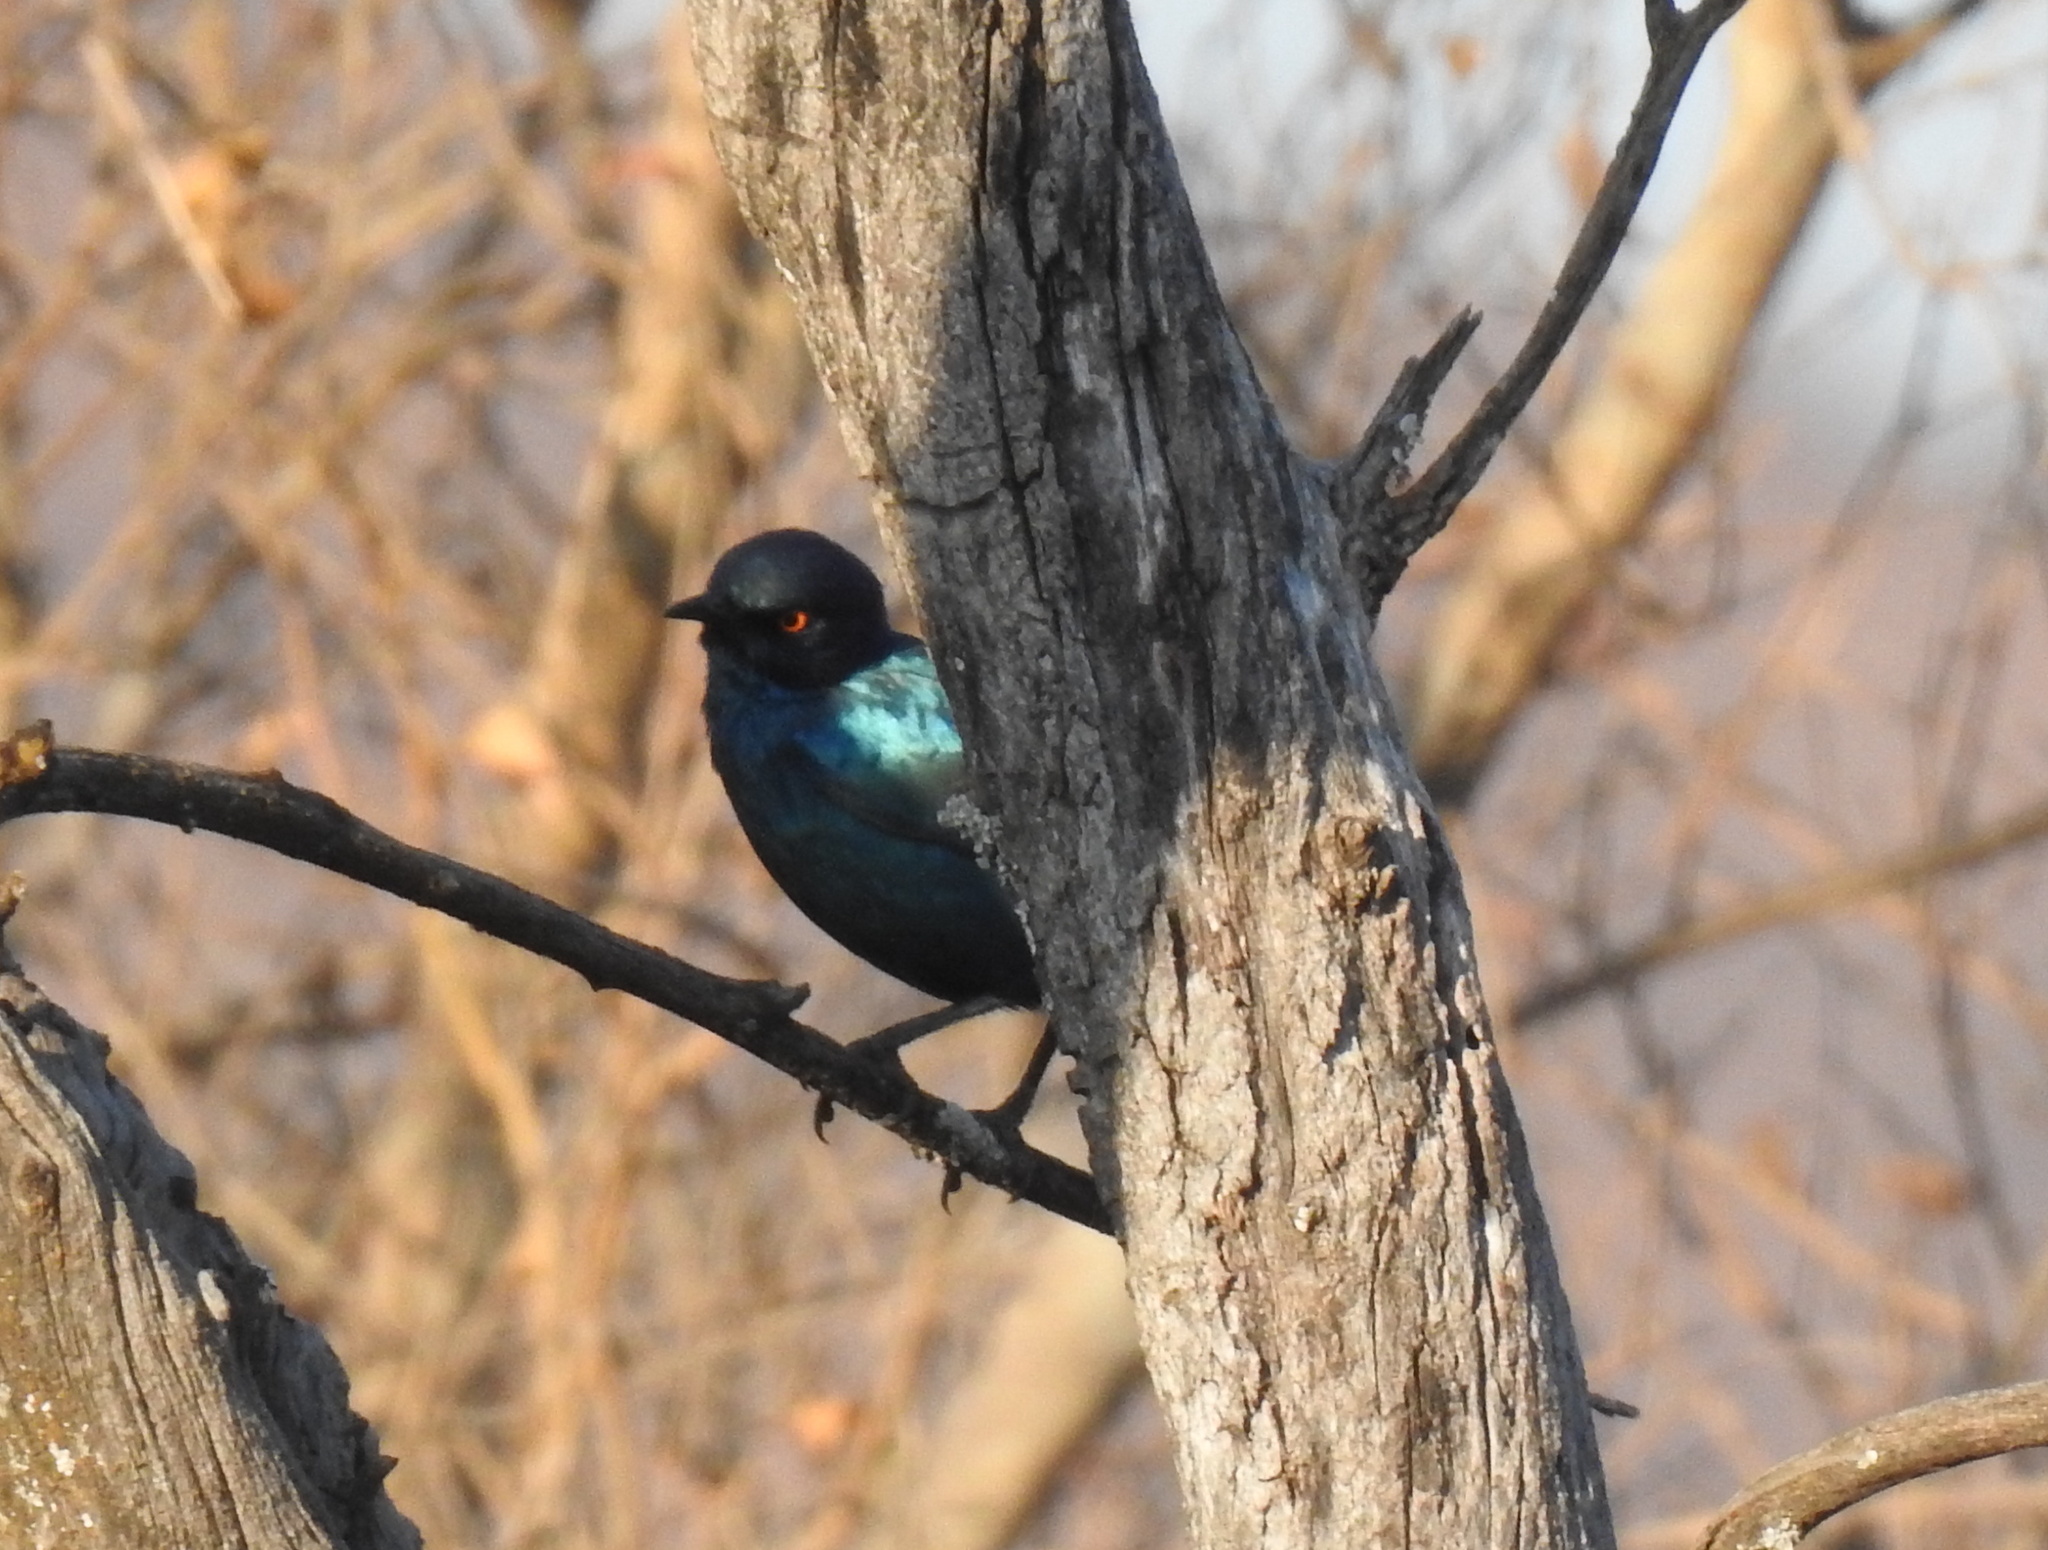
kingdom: Animalia
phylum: Chordata
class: Aves
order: Passeriformes
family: Sturnidae
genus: Lamprotornis
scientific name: Lamprotornis nitens
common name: Cape starling
